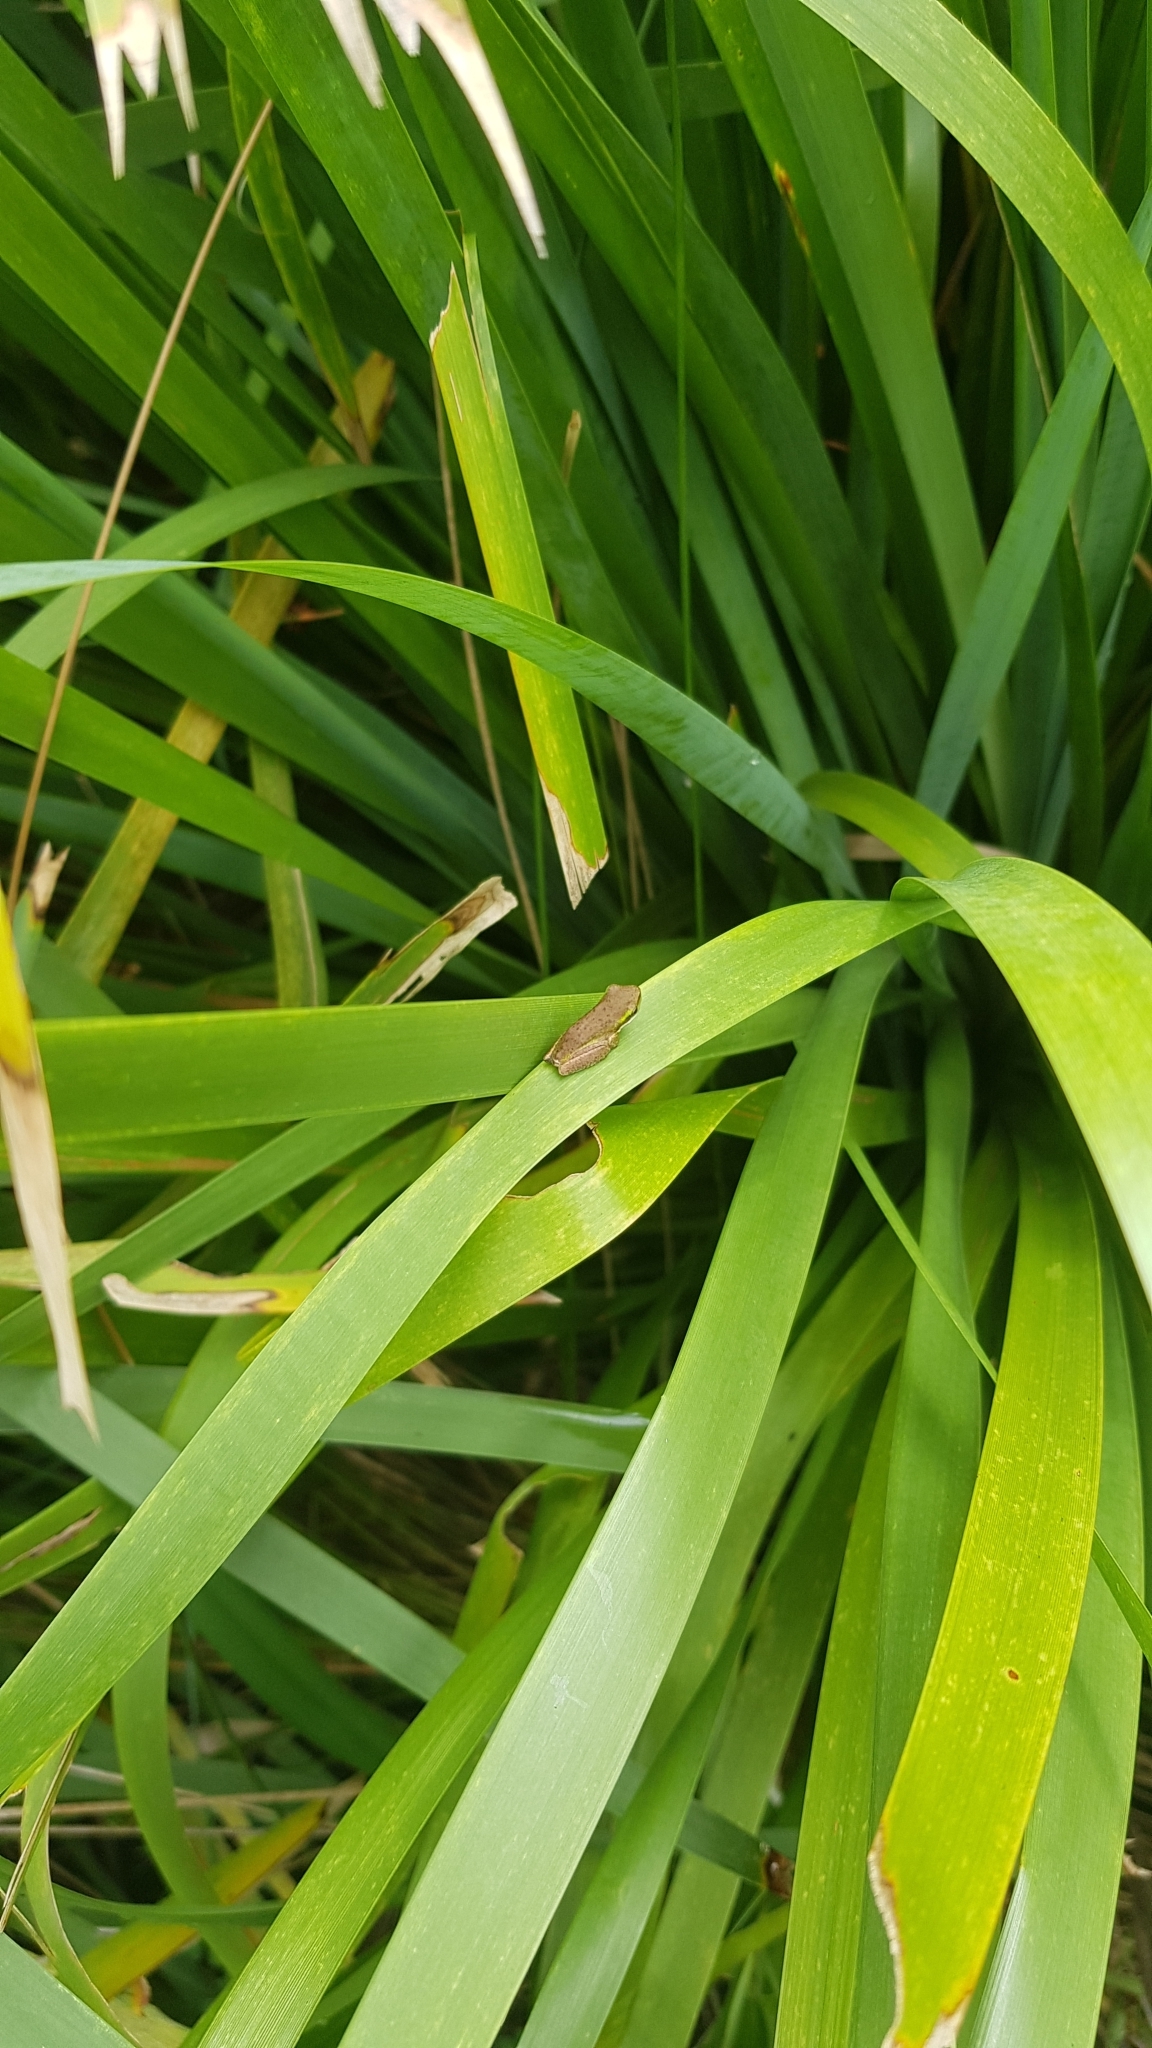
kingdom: Animalia
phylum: Chordata
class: Amphibia
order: Anura
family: Pelodryadidae
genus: Litoria
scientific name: Litoria fallax
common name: Eastern dwarf treefrog
